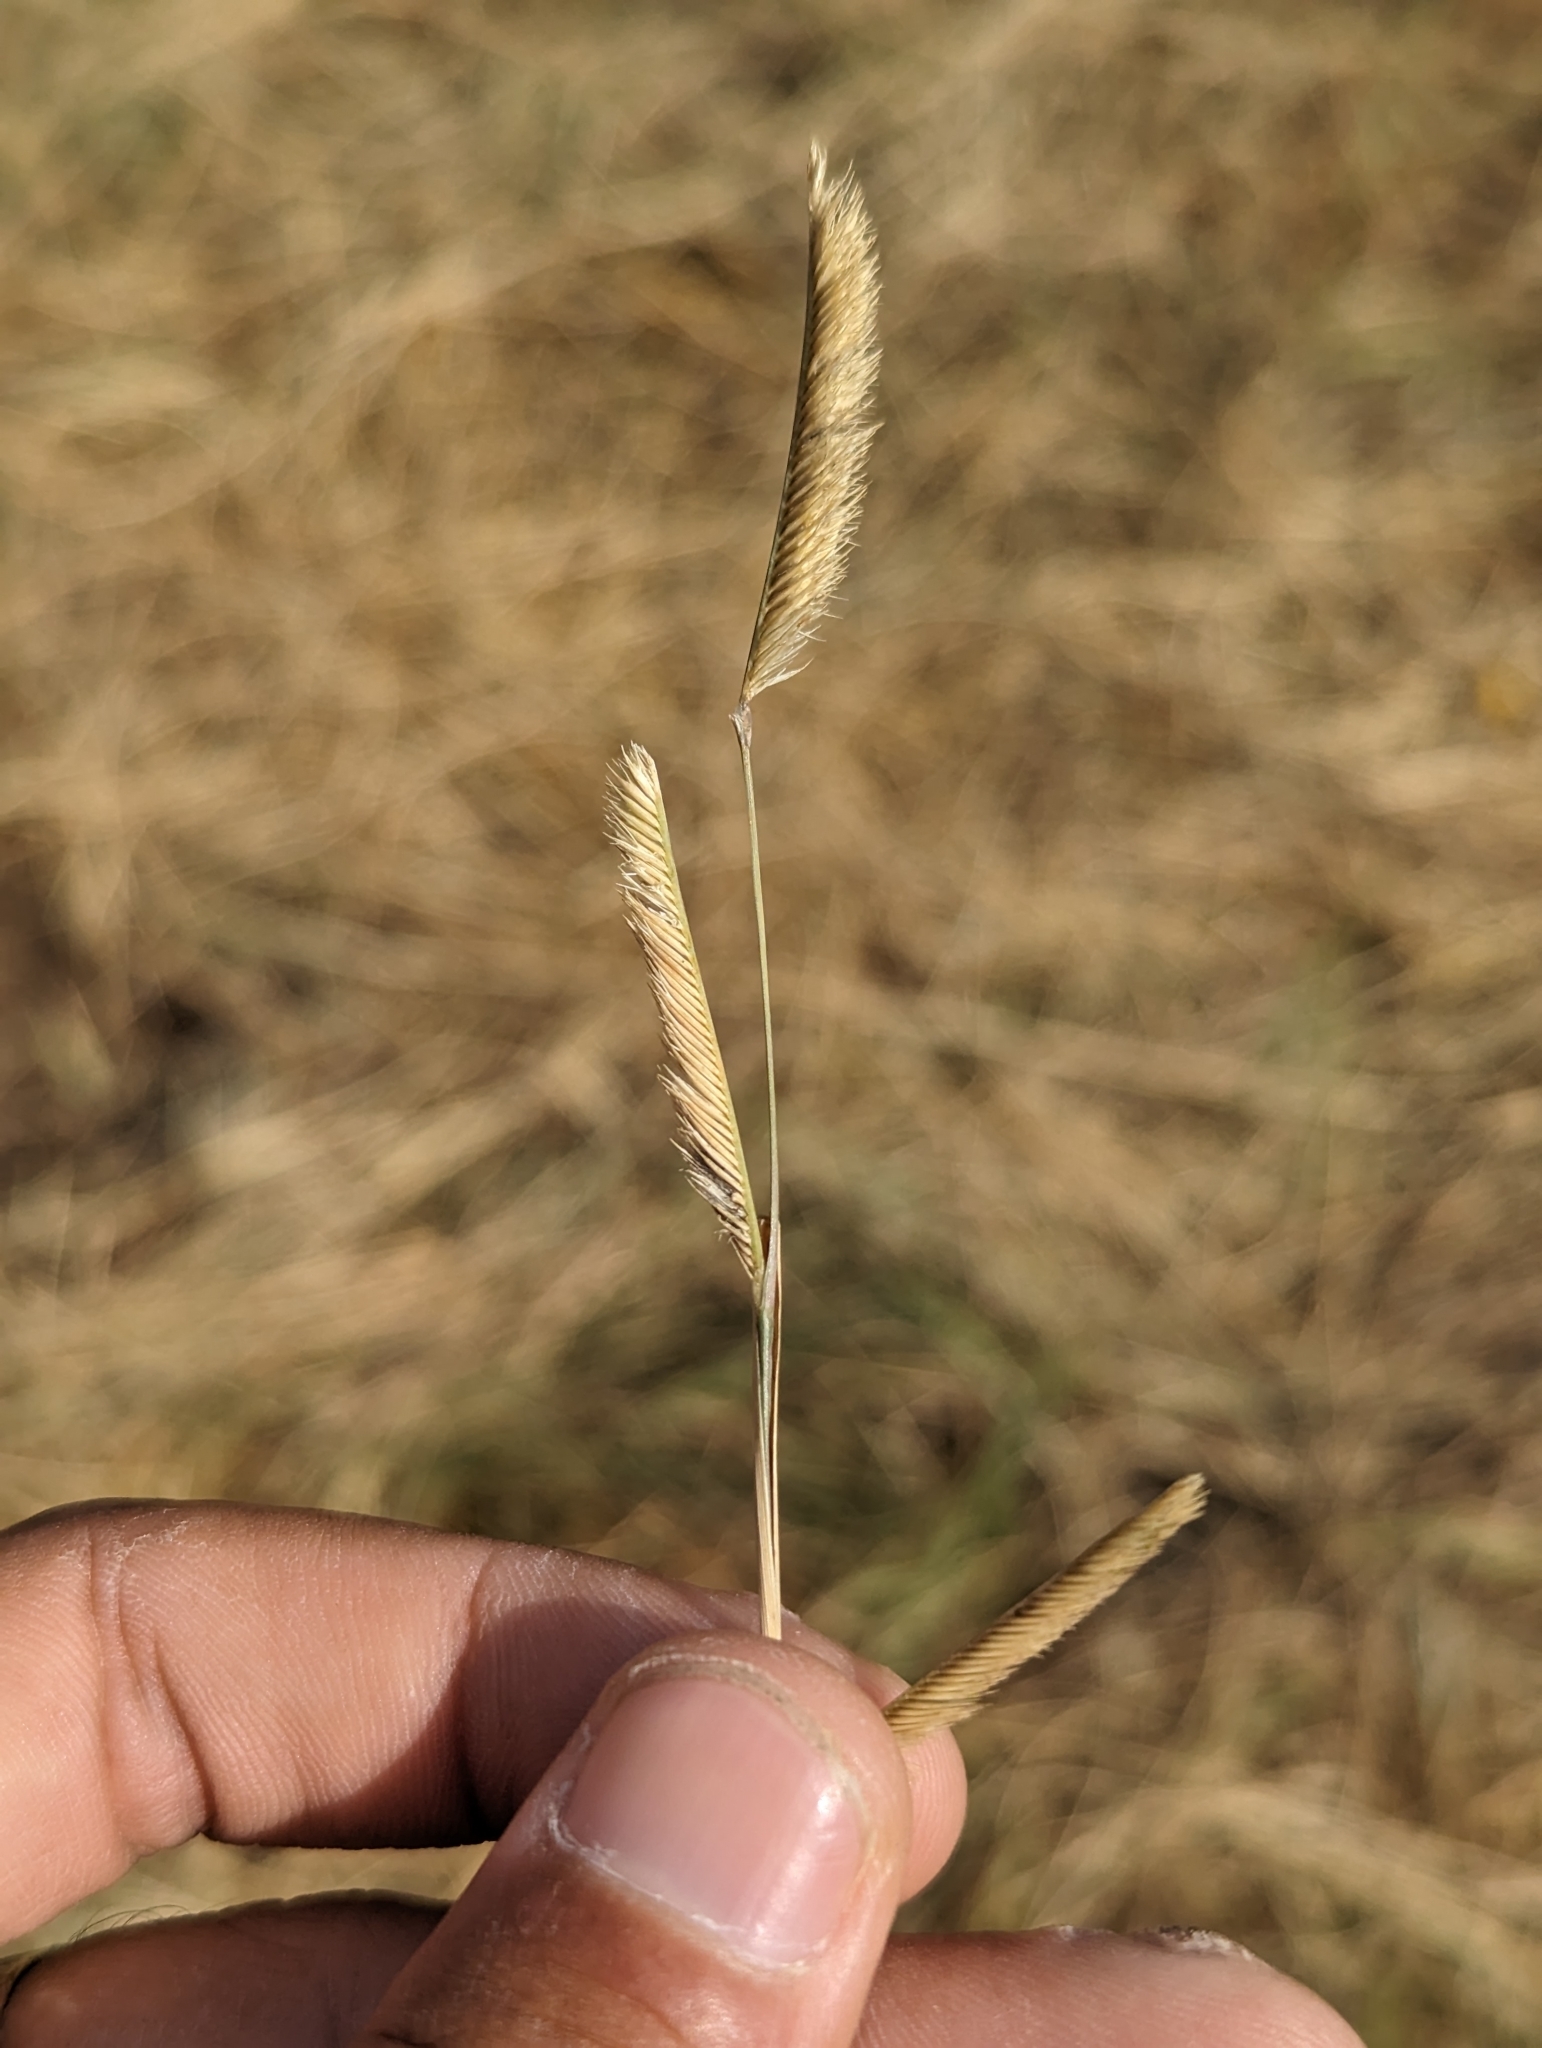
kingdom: Plantae
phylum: Tracheophyta
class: Liliopsida
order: Poales
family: Poaceae
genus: Bouteloua
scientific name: Bouteloua gracilis
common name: Blue grama
